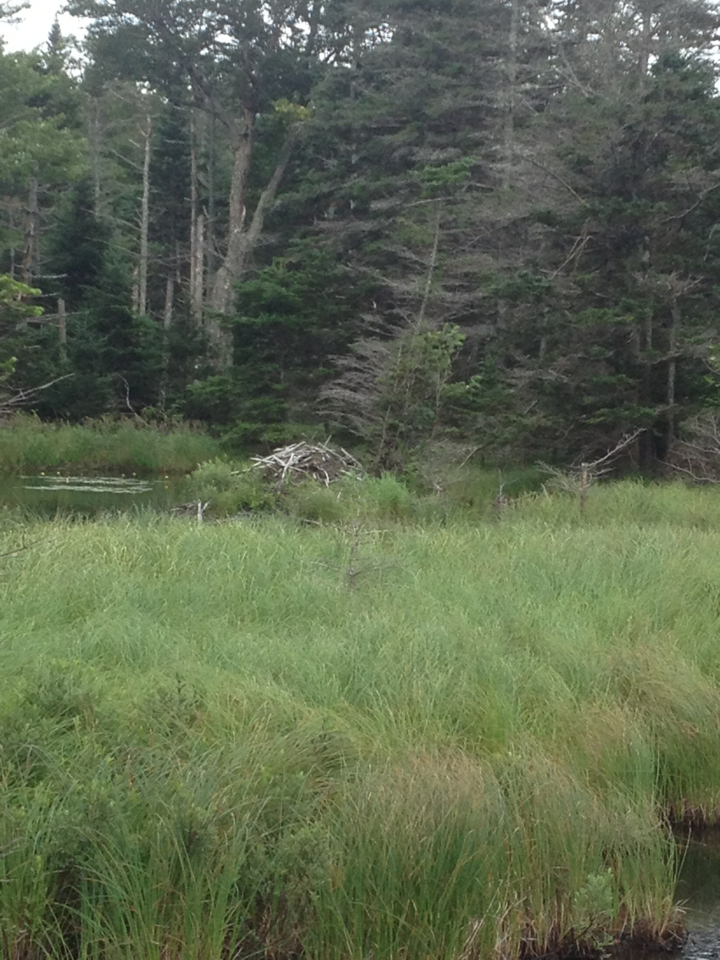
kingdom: Animalia
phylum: Chordata
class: Mammalia
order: Rodentia
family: Castoridae
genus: Castor
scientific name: Castor canadensis
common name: American beaver
